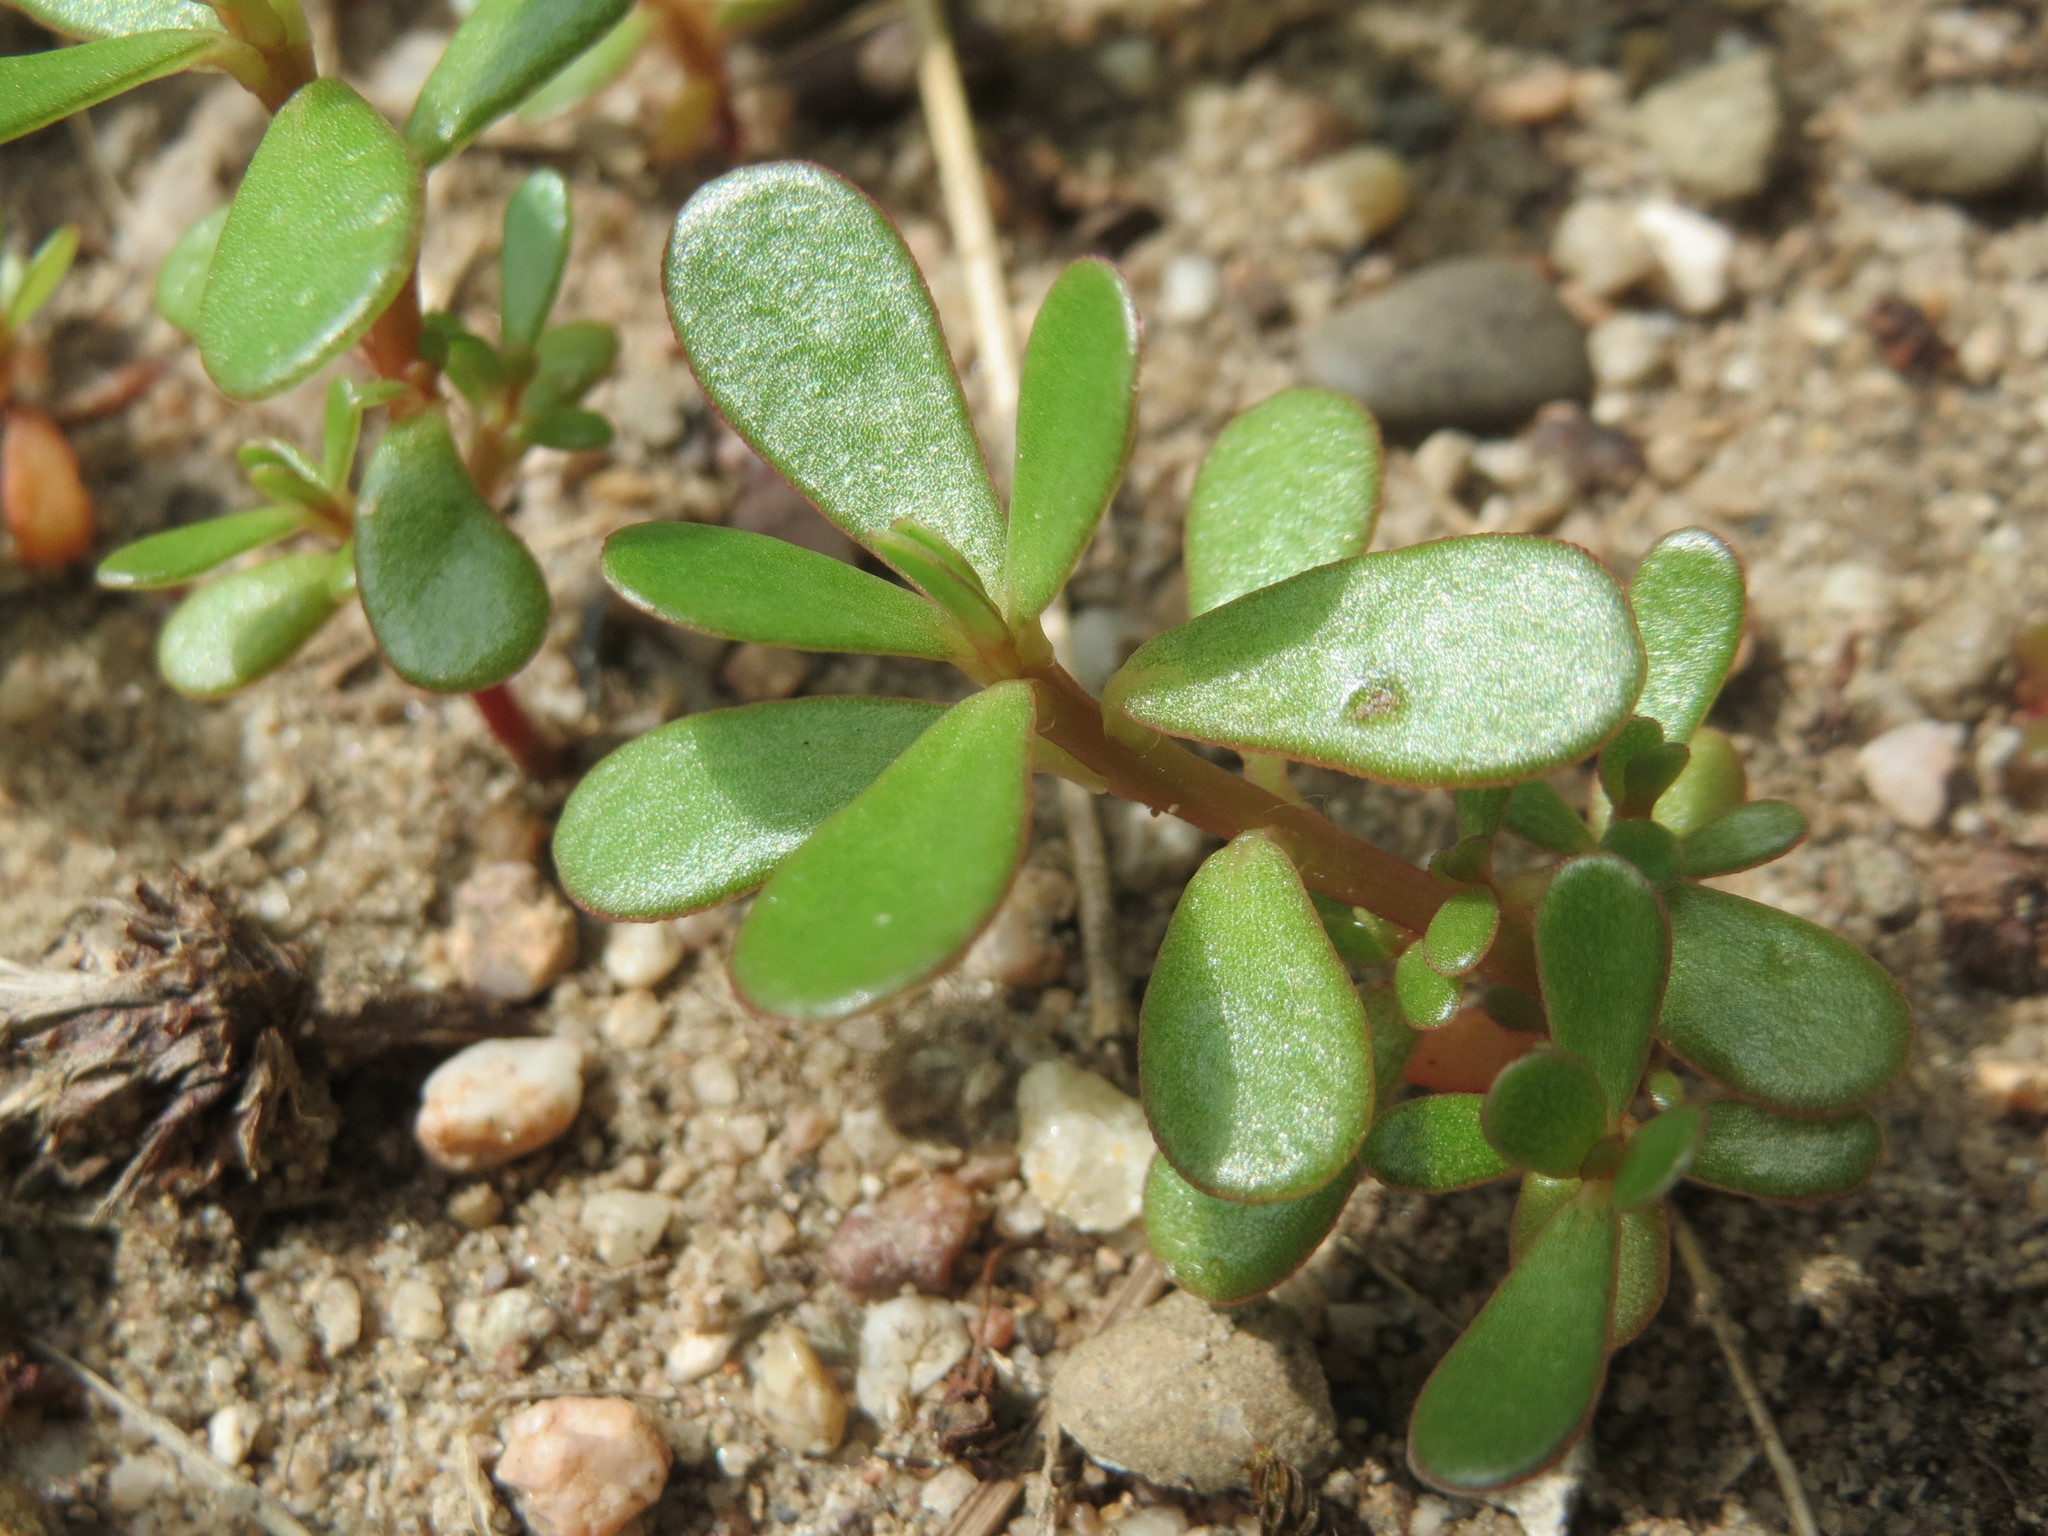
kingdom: Plantae
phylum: Tracheophyta
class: Magnoliopsida
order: Caryophyllales
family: Portulacaceae
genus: Portulaca
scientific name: Portulaca oleracea
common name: Common purslane
